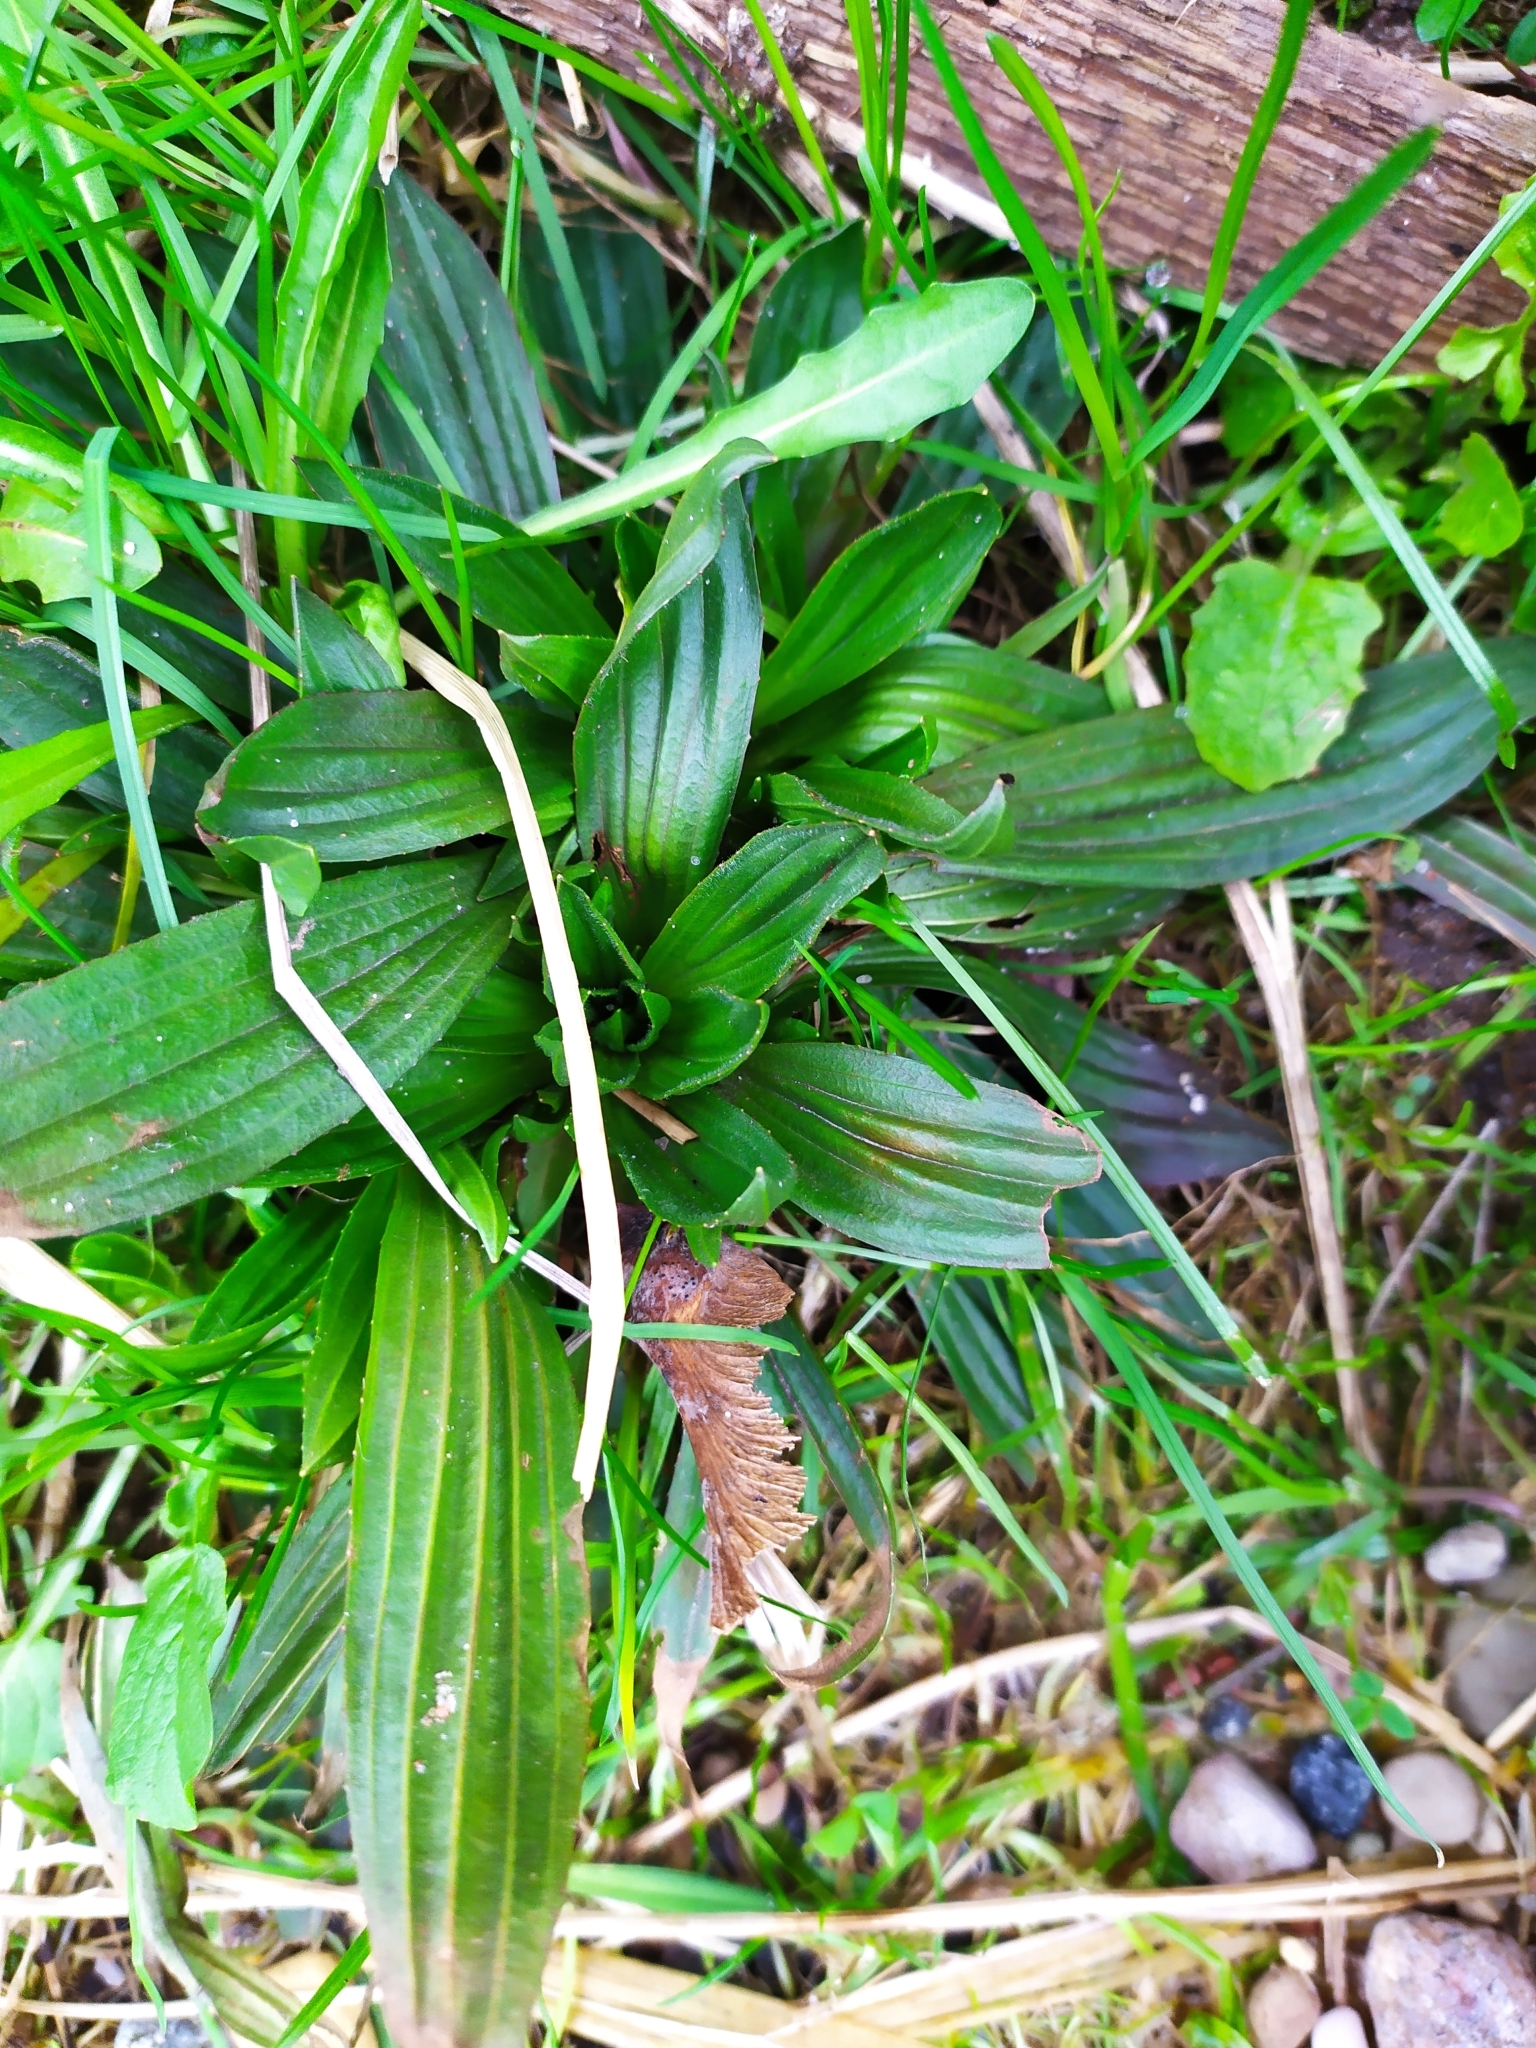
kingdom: Plantae
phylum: Tracheophyta
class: Magnoliopsida
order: Lamiales
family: Plantaginaceae
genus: Plantago
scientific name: Plantago lanceolata
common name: Ribwort plantain
